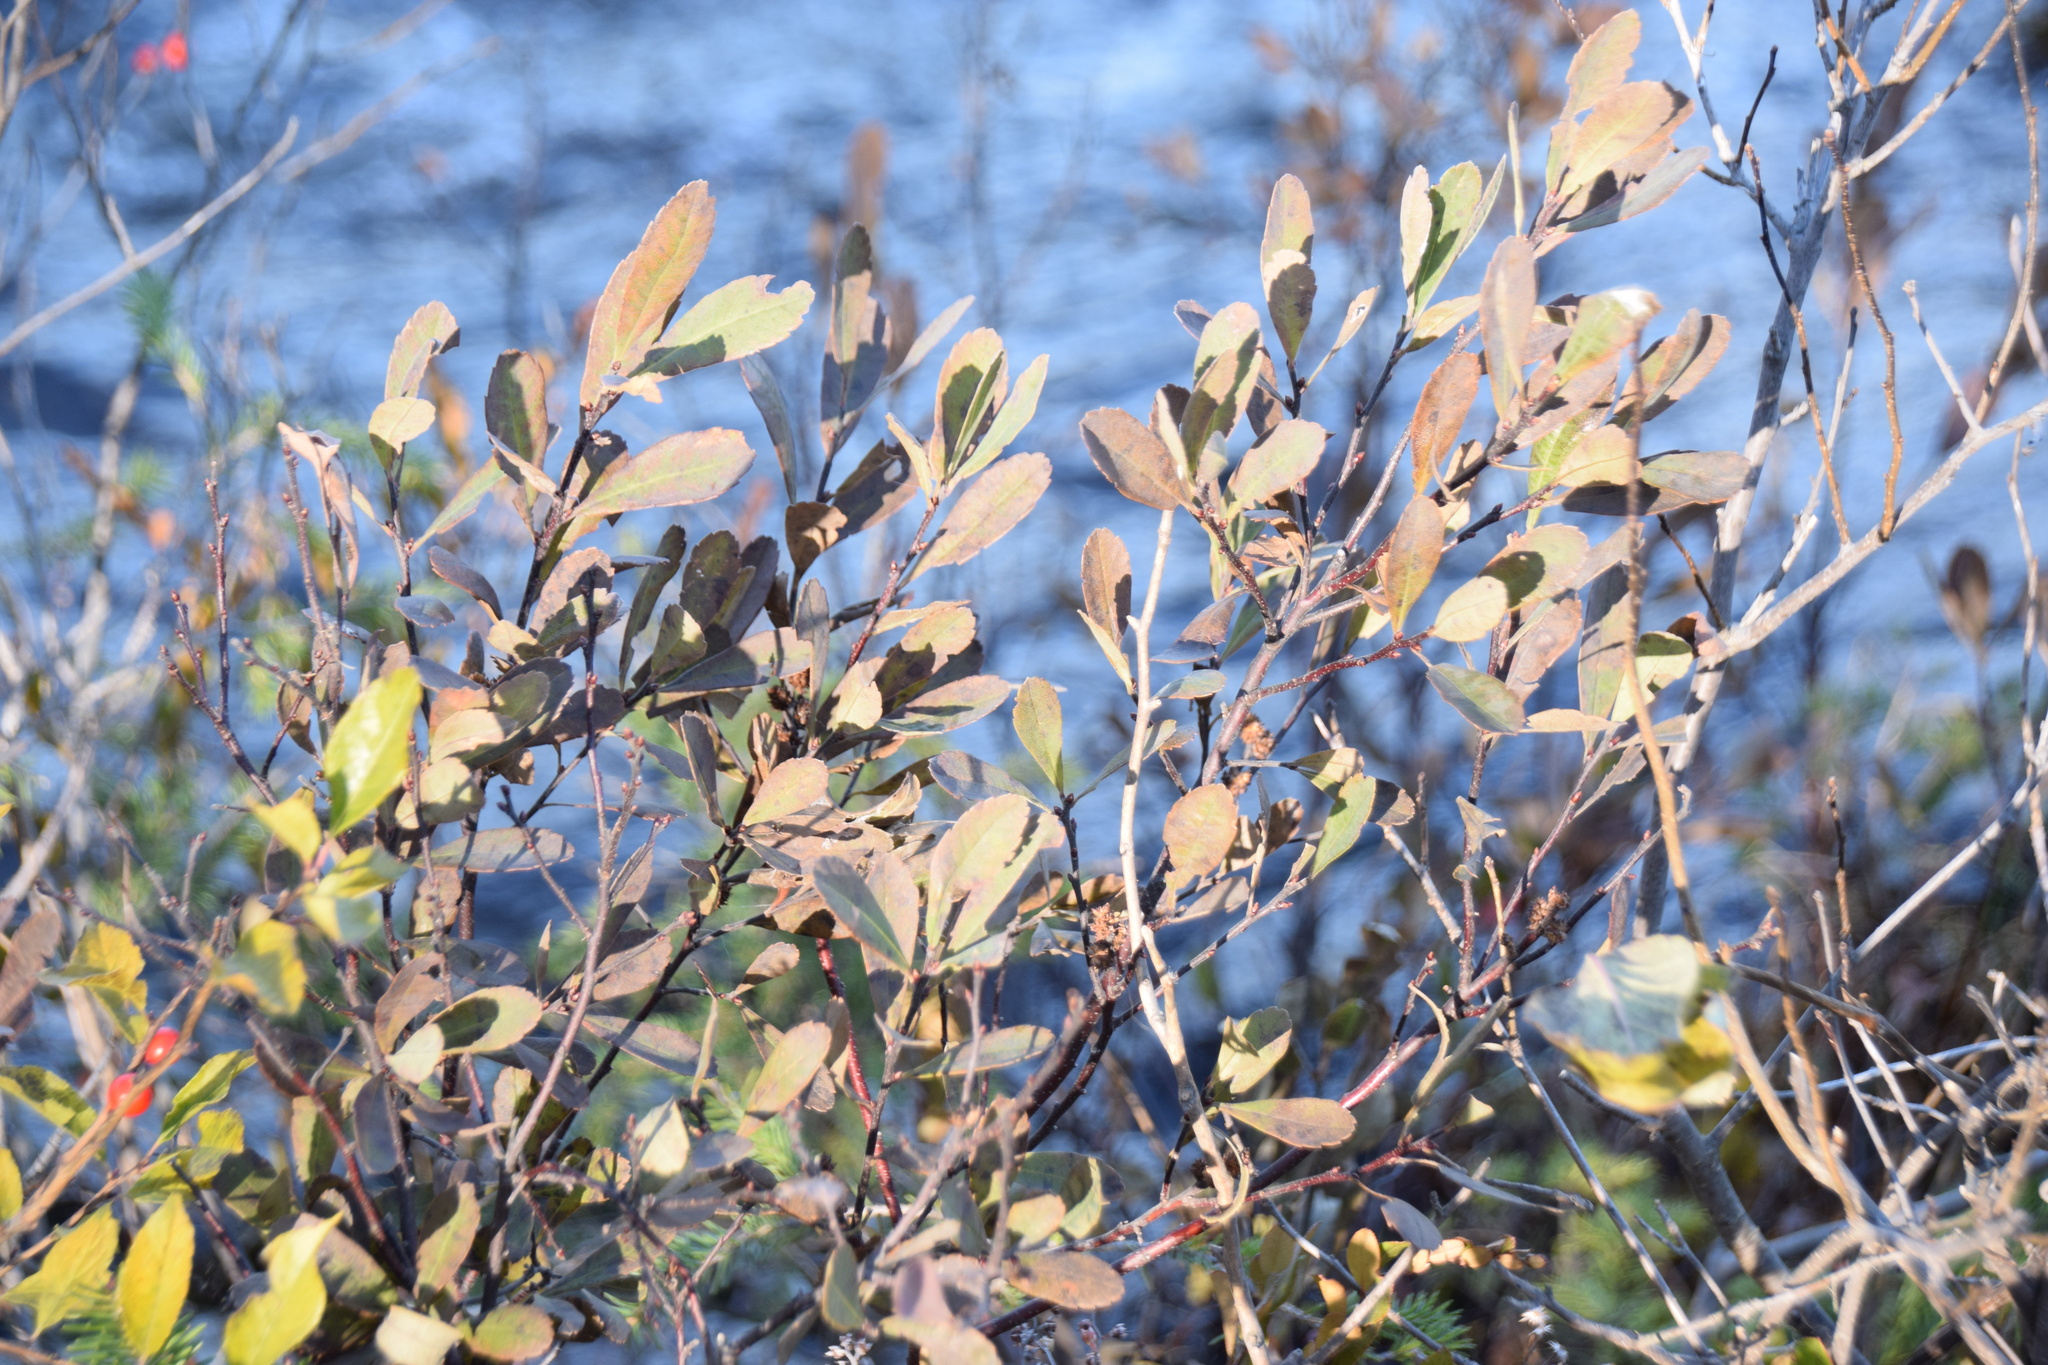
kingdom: Plantae
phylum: Tracheophyta
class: Magnoliopsida
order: Fagales
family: Myricaceae
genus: Myrica
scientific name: Myrica gale
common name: Sweet gale
